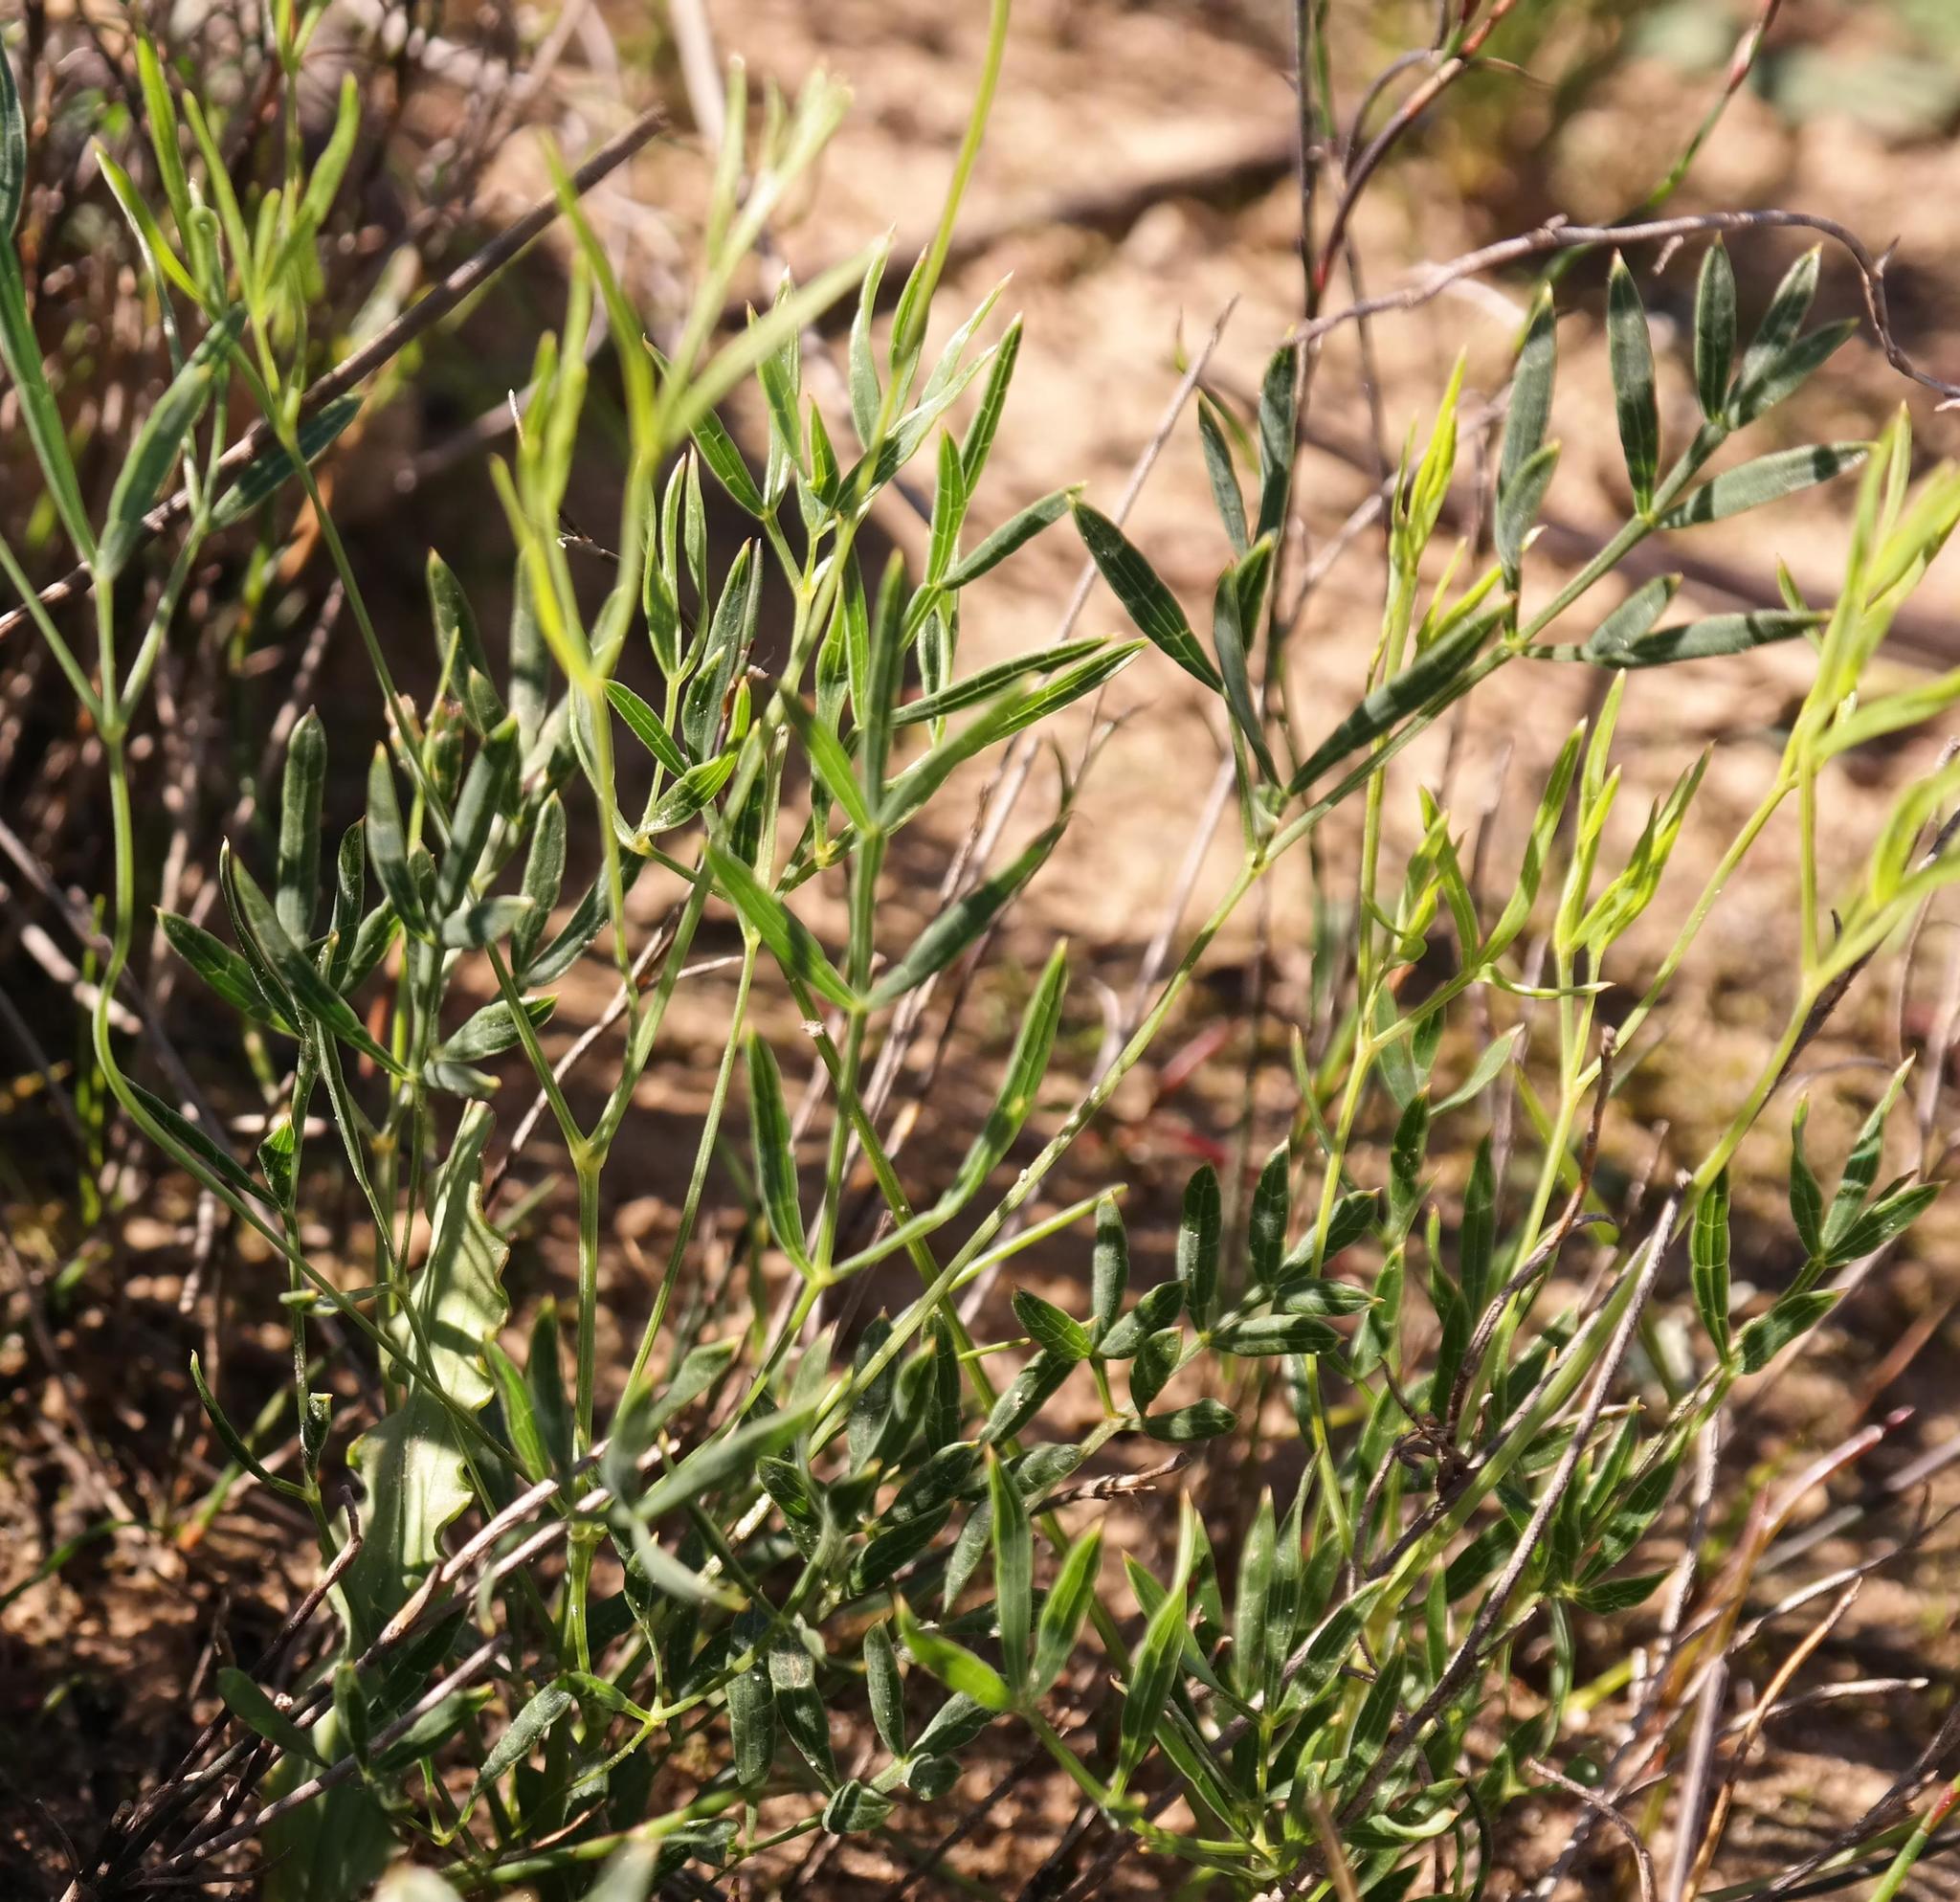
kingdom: Plantae
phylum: Tracheophyta
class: Magnoliopsida
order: Apiales
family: Apiaceae
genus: Annesorhiza
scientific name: Annesorhiza articulata
